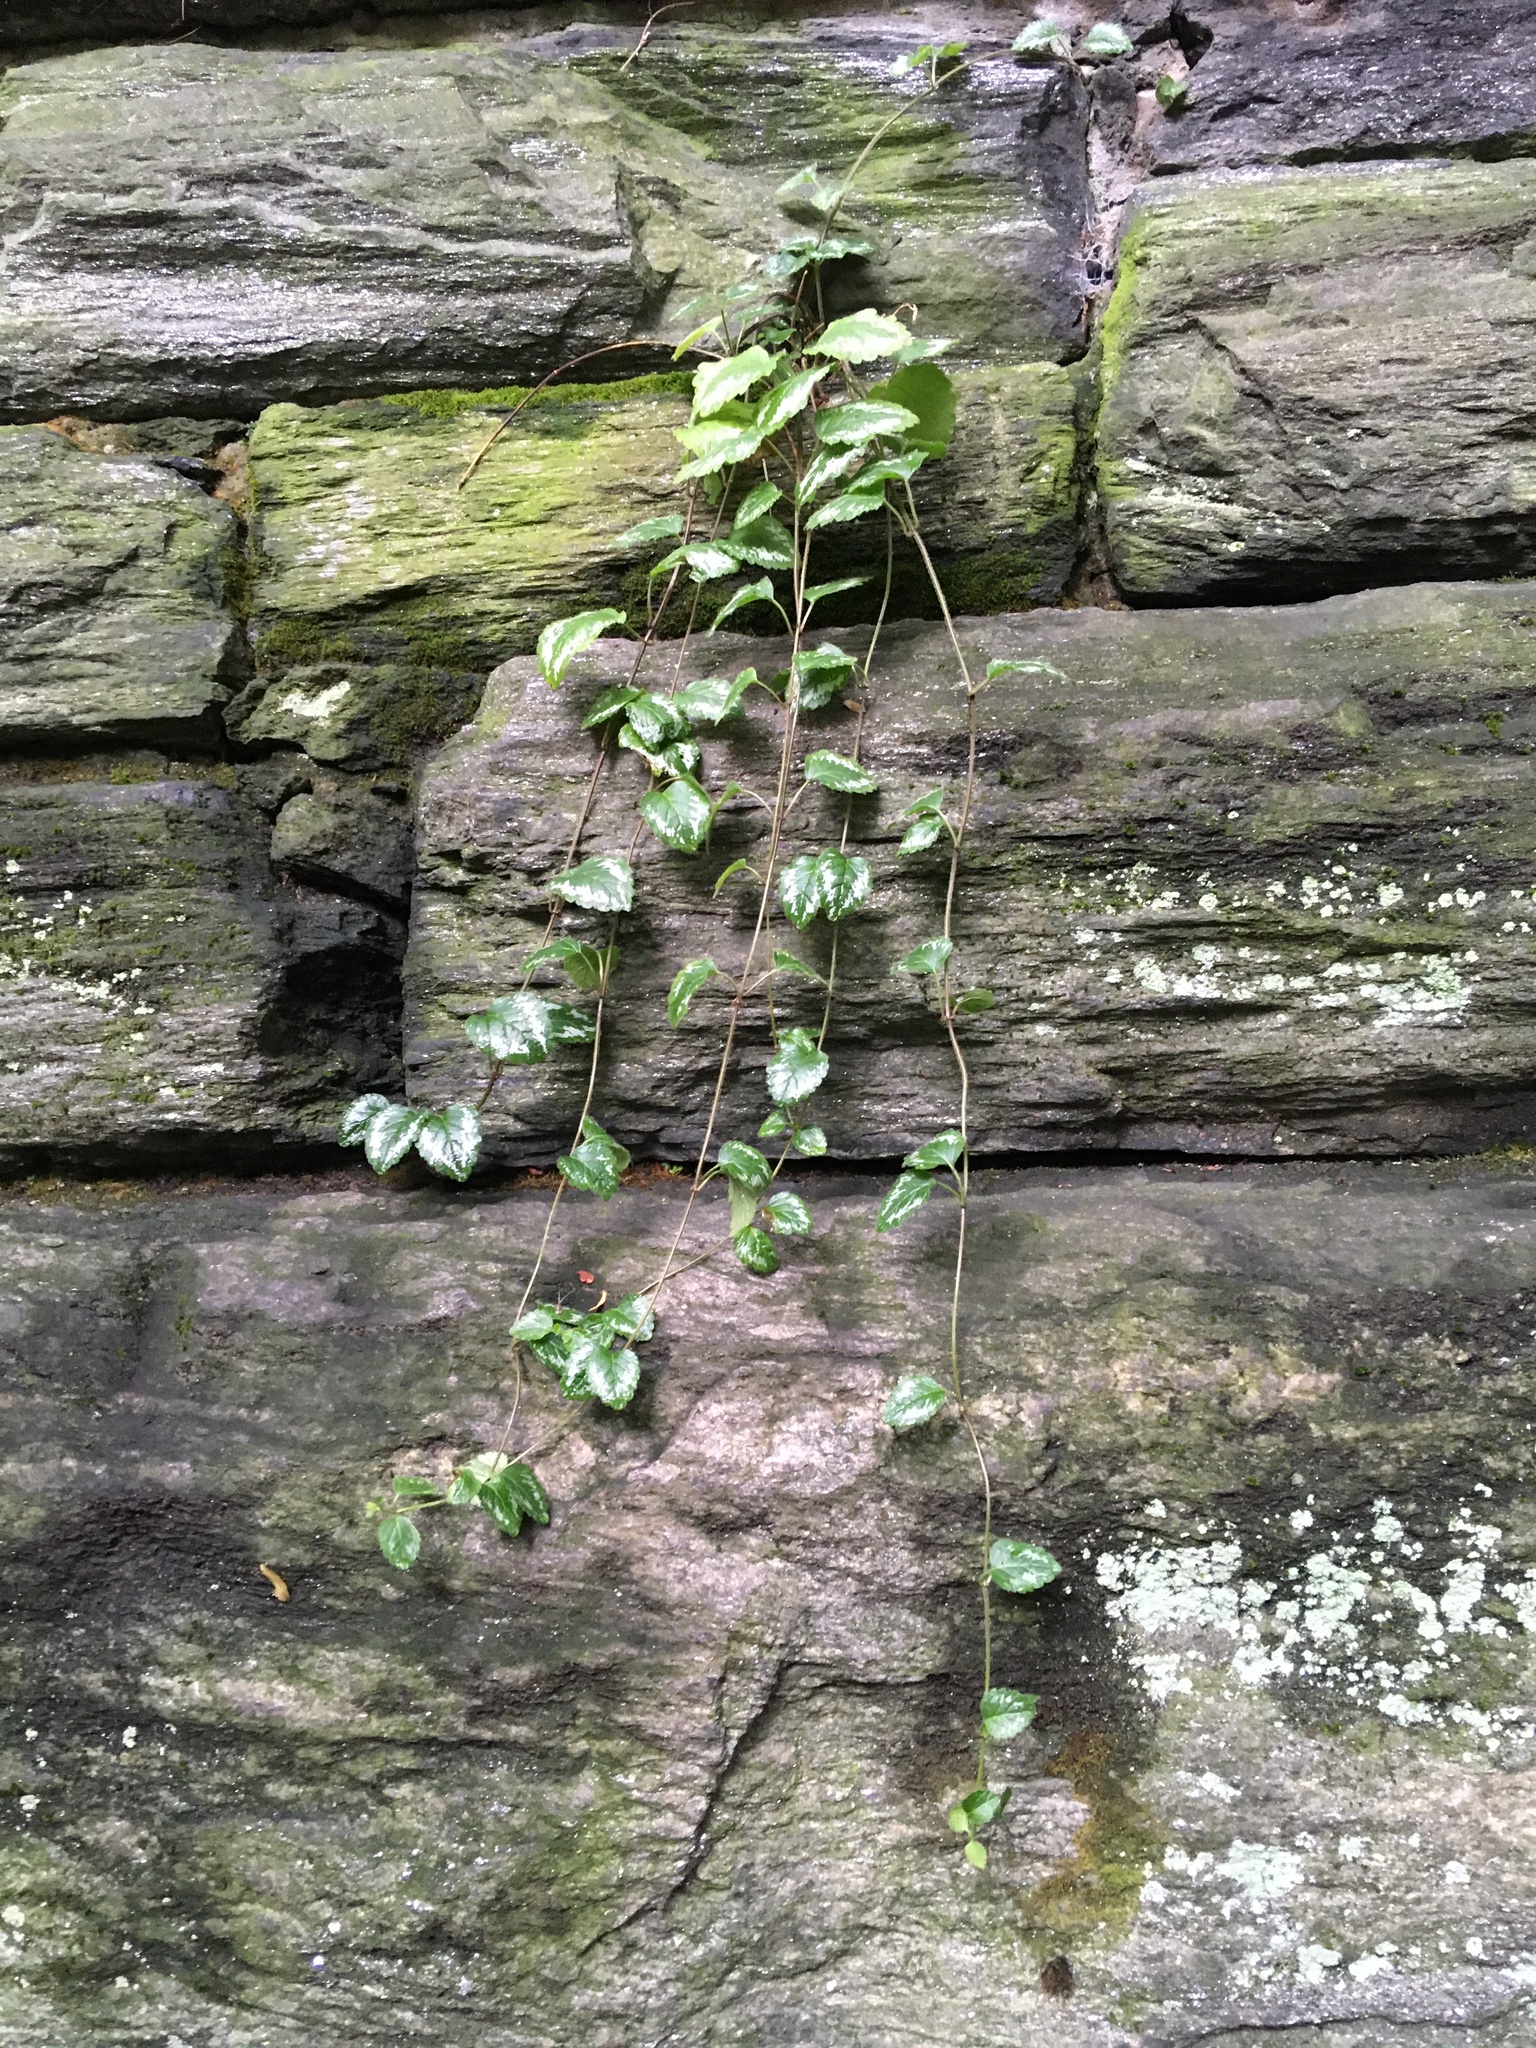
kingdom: Plantae
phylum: Tracheophyta
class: Magnoliopsida
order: Lamiales
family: Lamiaceae
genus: Lamium
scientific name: Lamium galeobdolon
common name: Yellow archangel
